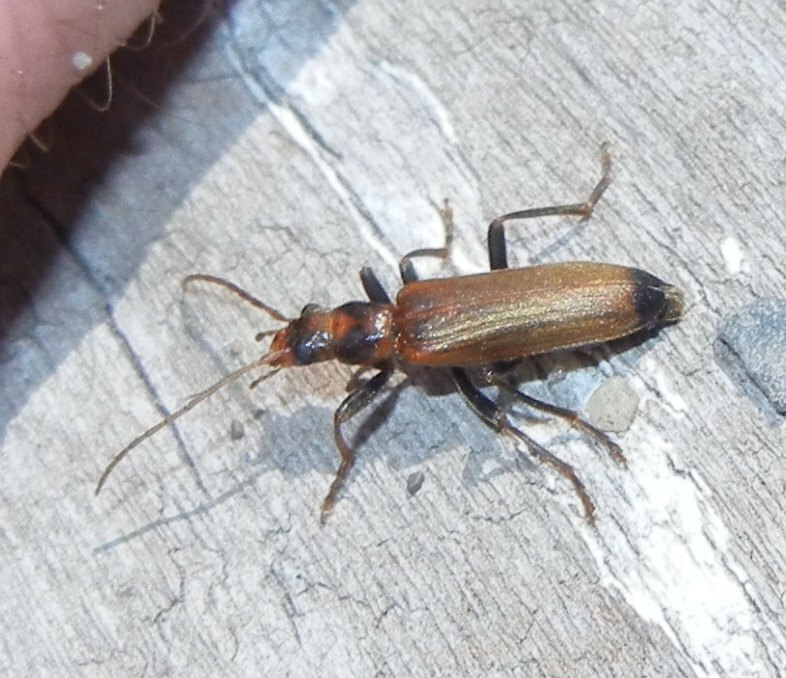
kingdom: Animalia
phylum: Arthropoda
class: Insecta
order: Coleoptera
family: Oedemeridae
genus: Nacerdes
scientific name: Nacerdes melanura
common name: Wharf borer
